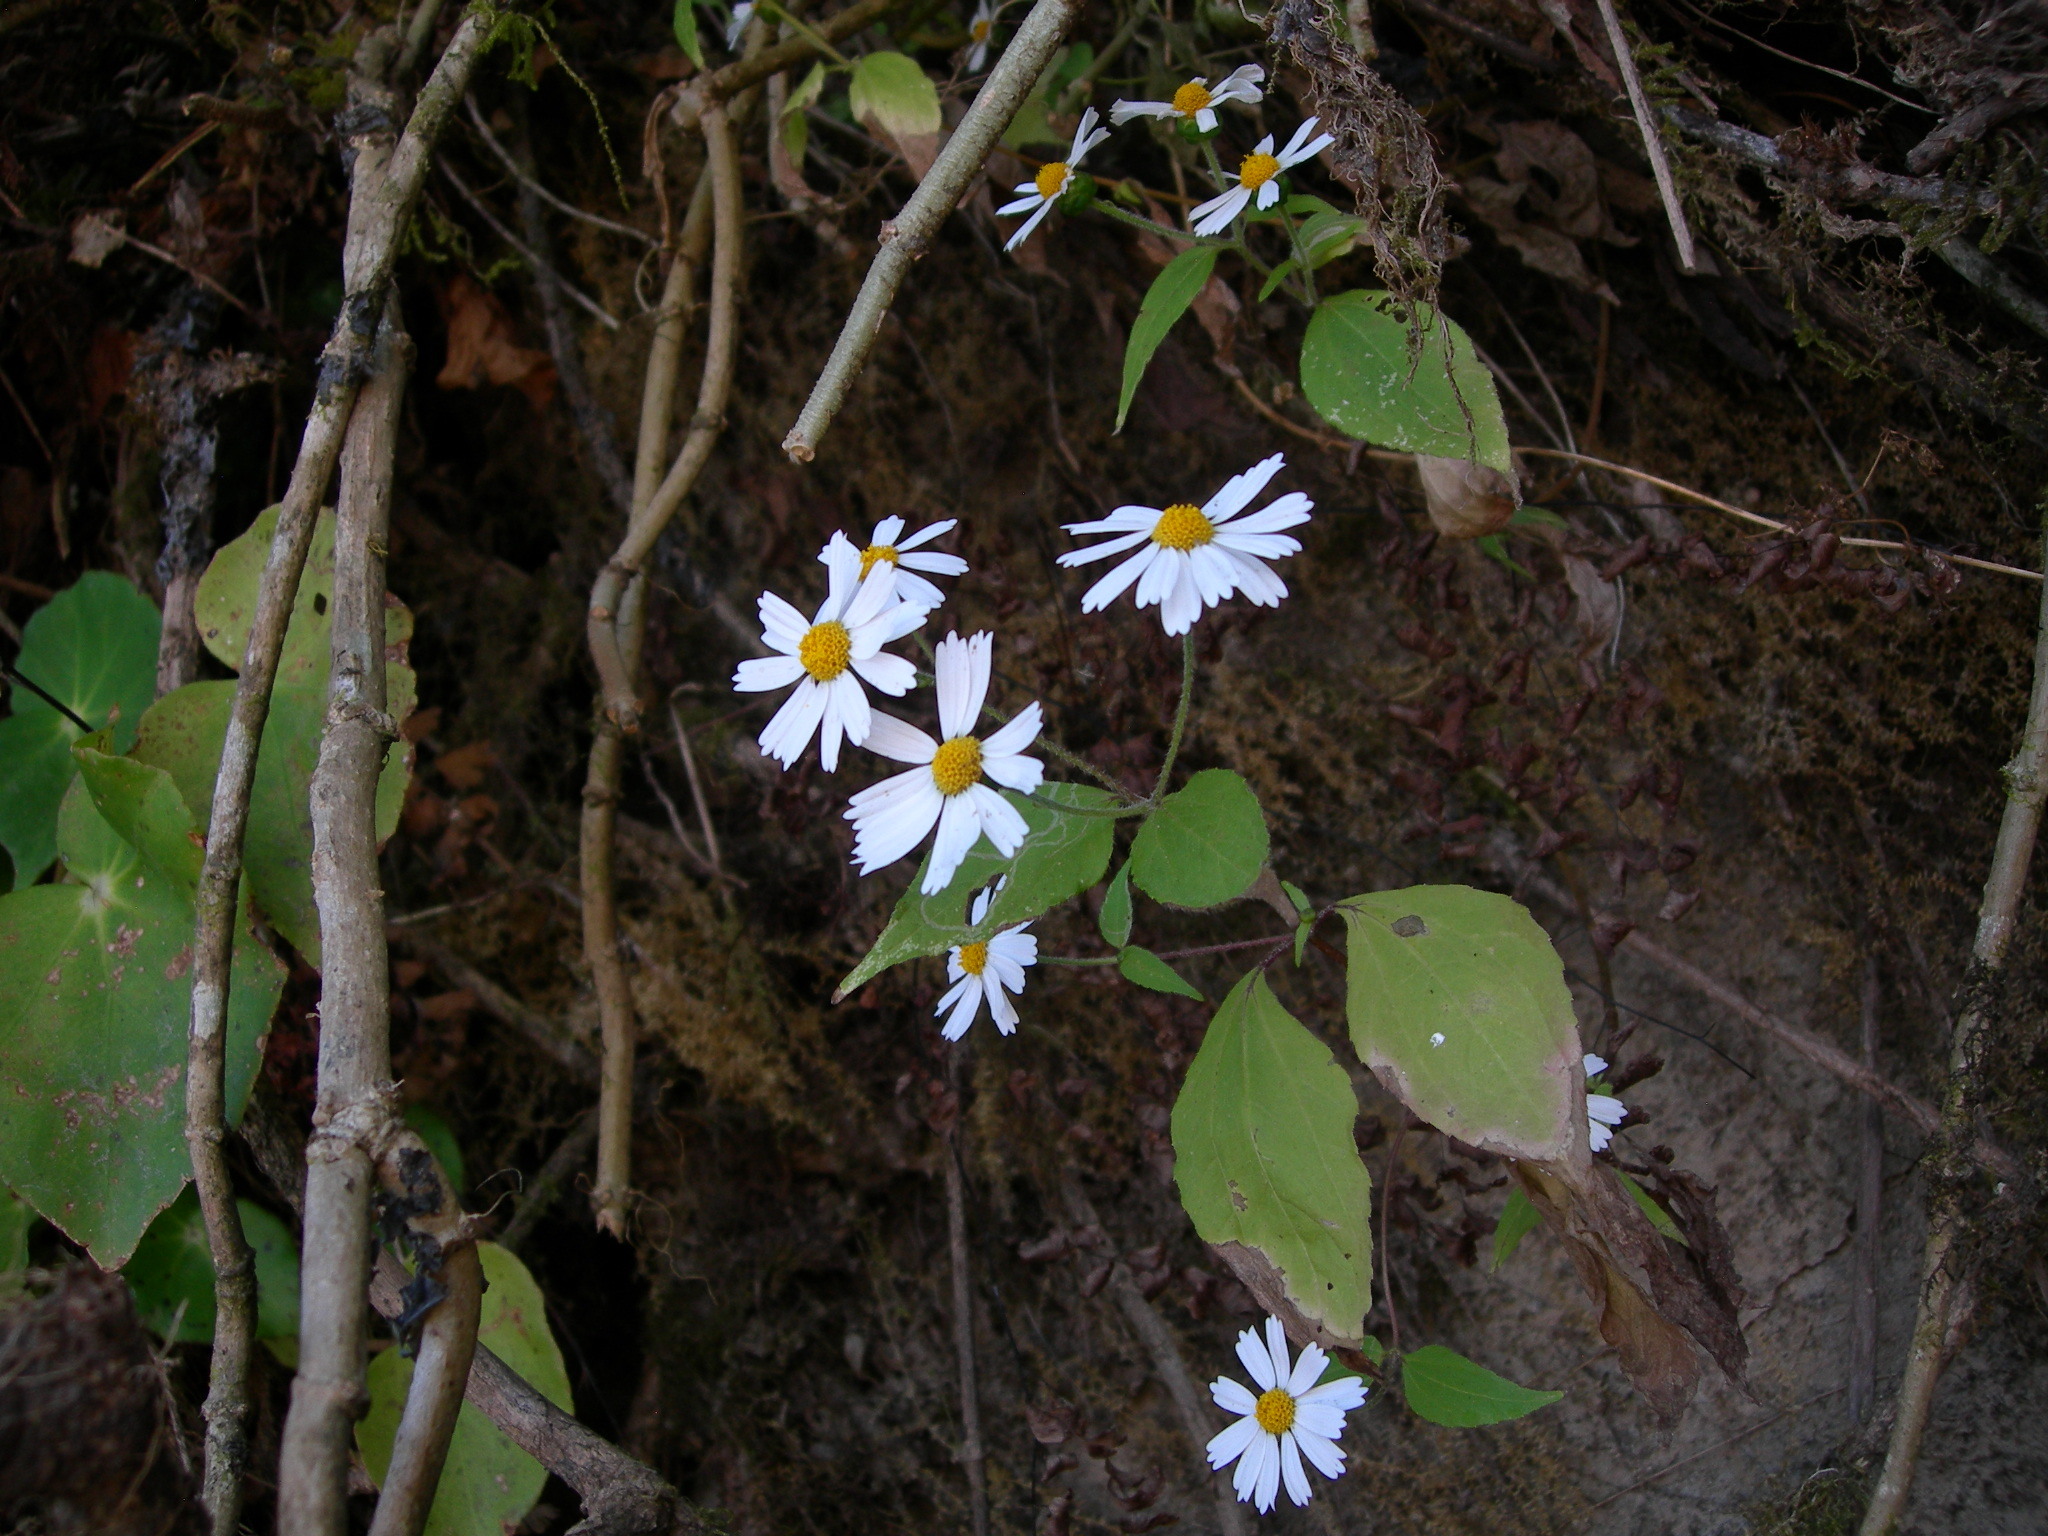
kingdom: Plantae
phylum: Tracheophyta
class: Magnoliopsida
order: Asterales
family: Asteraceae
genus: Montanoa
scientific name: Montanoa atriplicifolia
